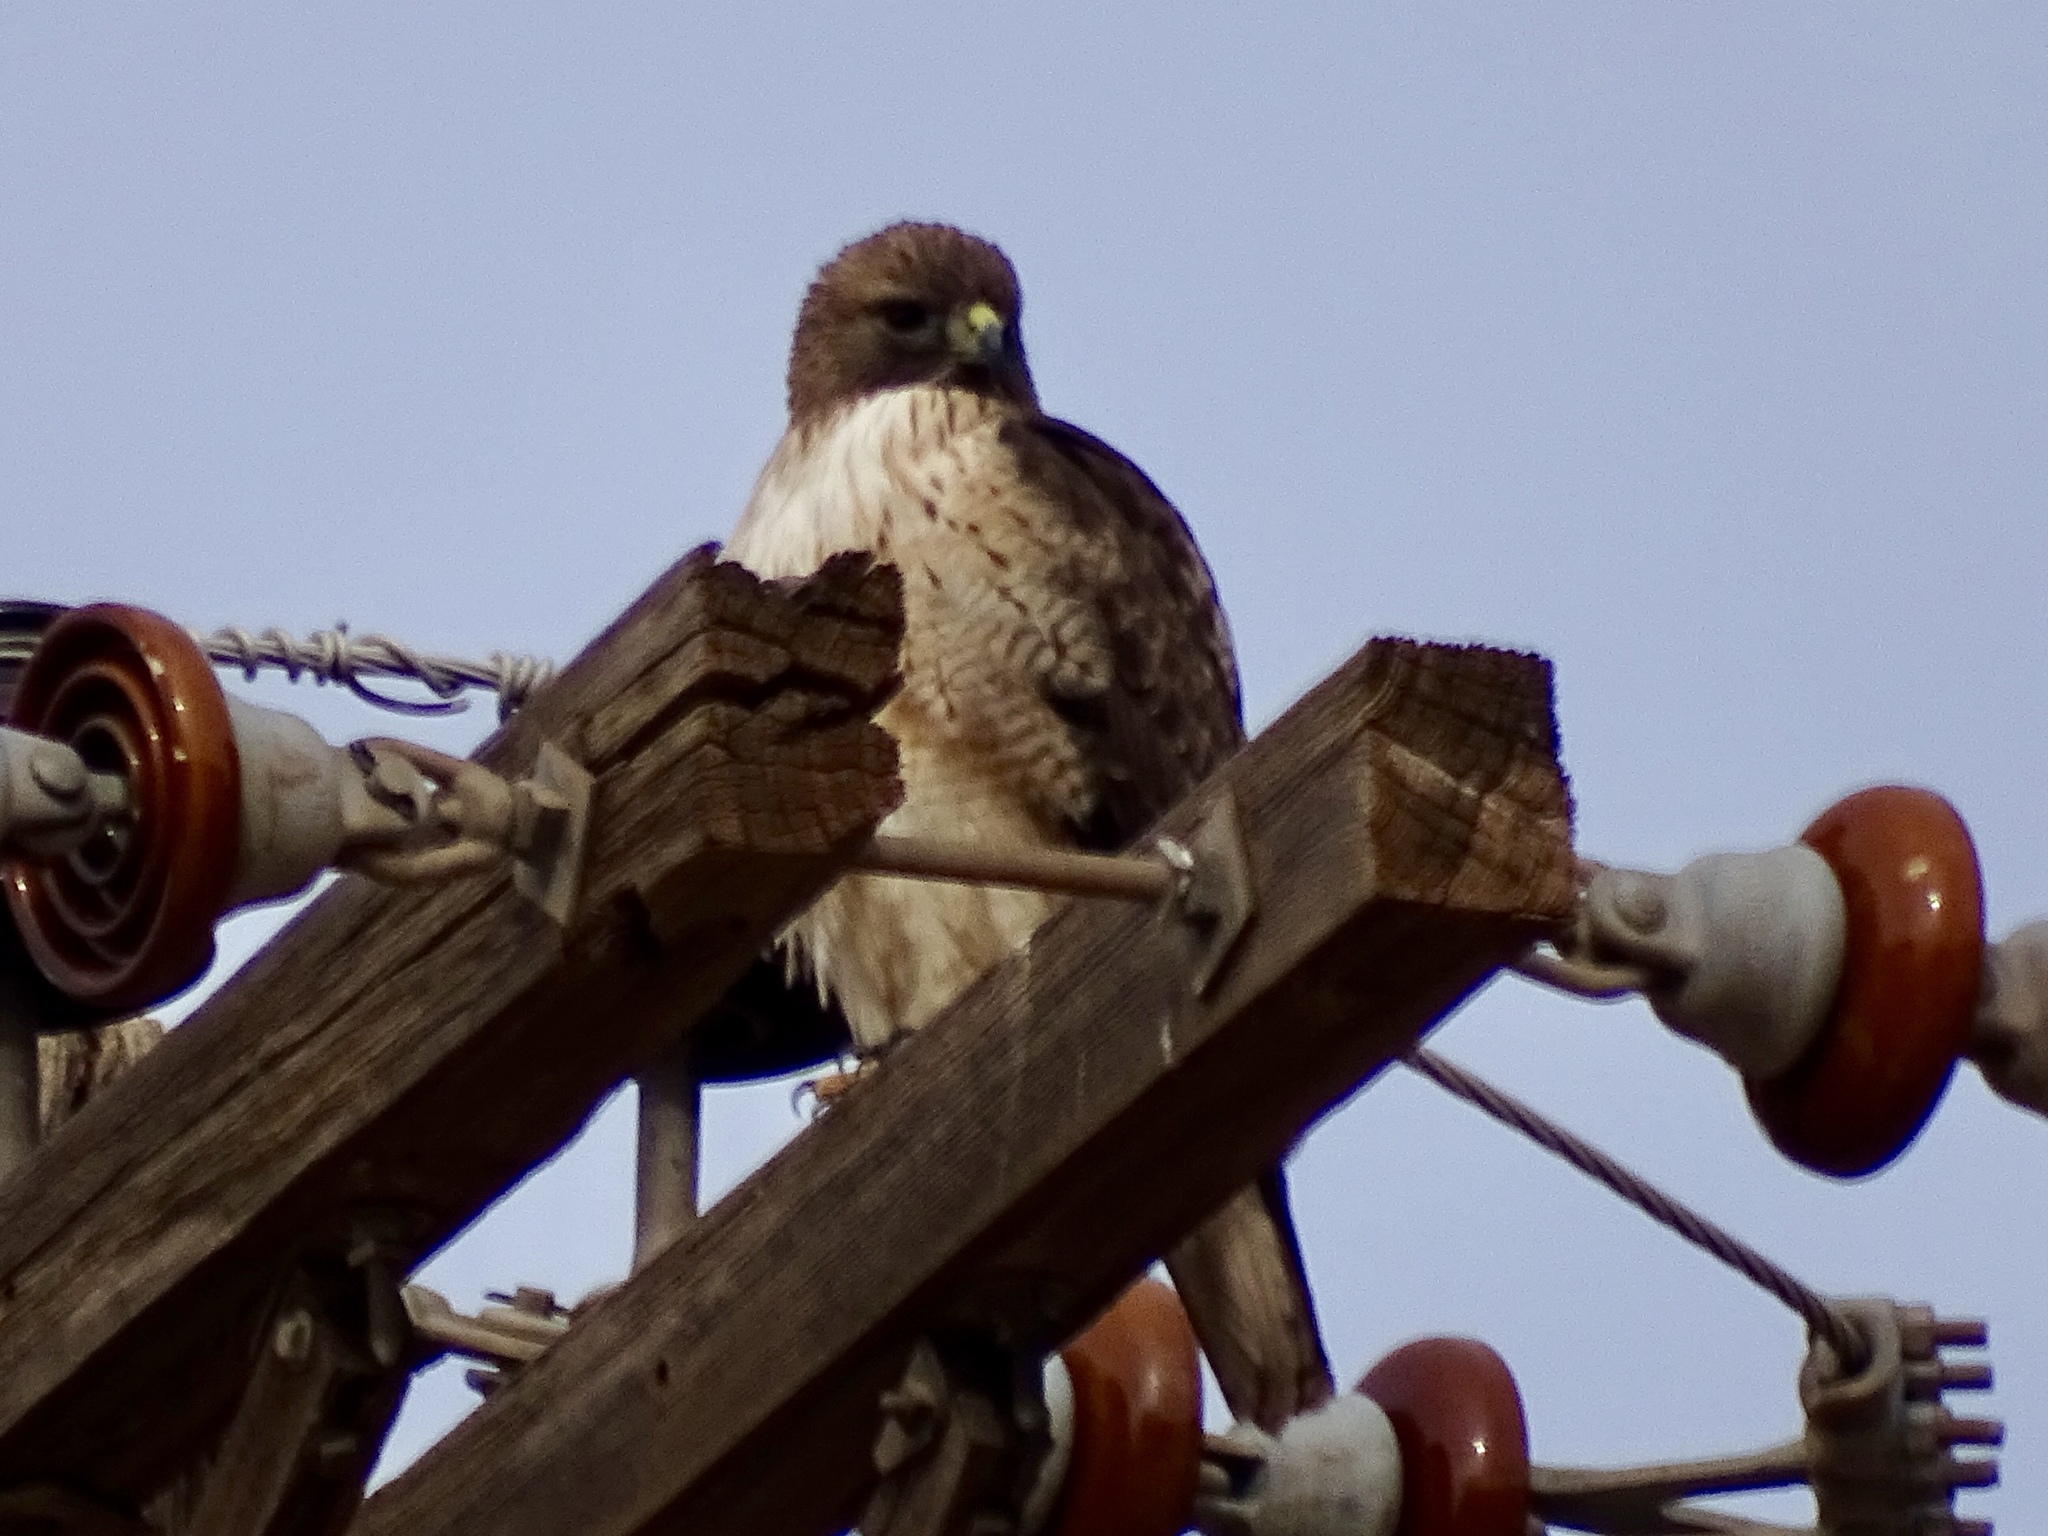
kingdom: Animalia
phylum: Chordata
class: Aves
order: Accipitriformes
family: Accipitridae
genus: Buteo
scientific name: Buteo jamaicensis
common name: Red-tailed hawk
